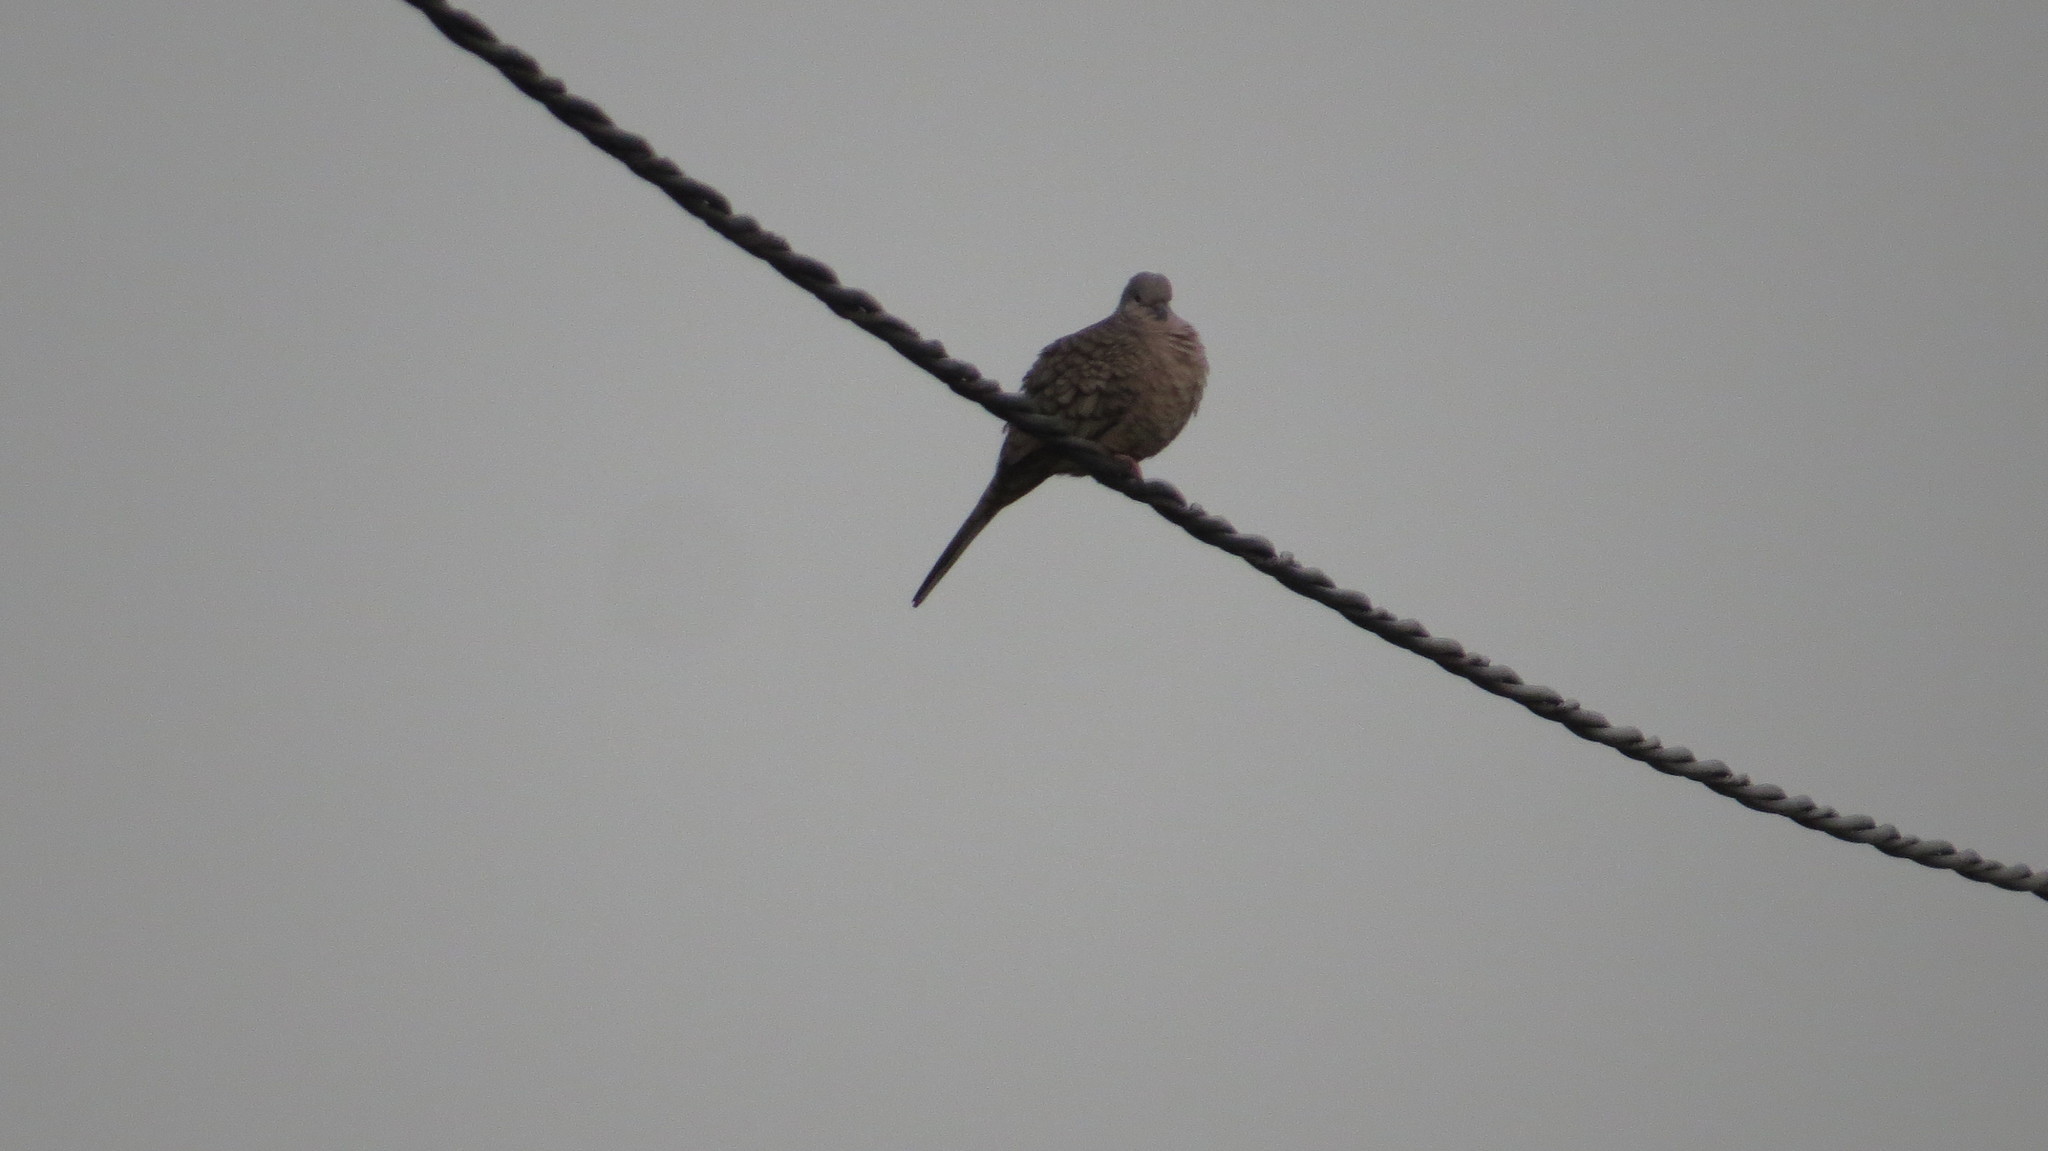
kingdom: Animalia
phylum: Chordata
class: Aves
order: Columbiformes
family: Columbidae
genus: Columbina
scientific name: Columbina inca
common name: Inca dove
